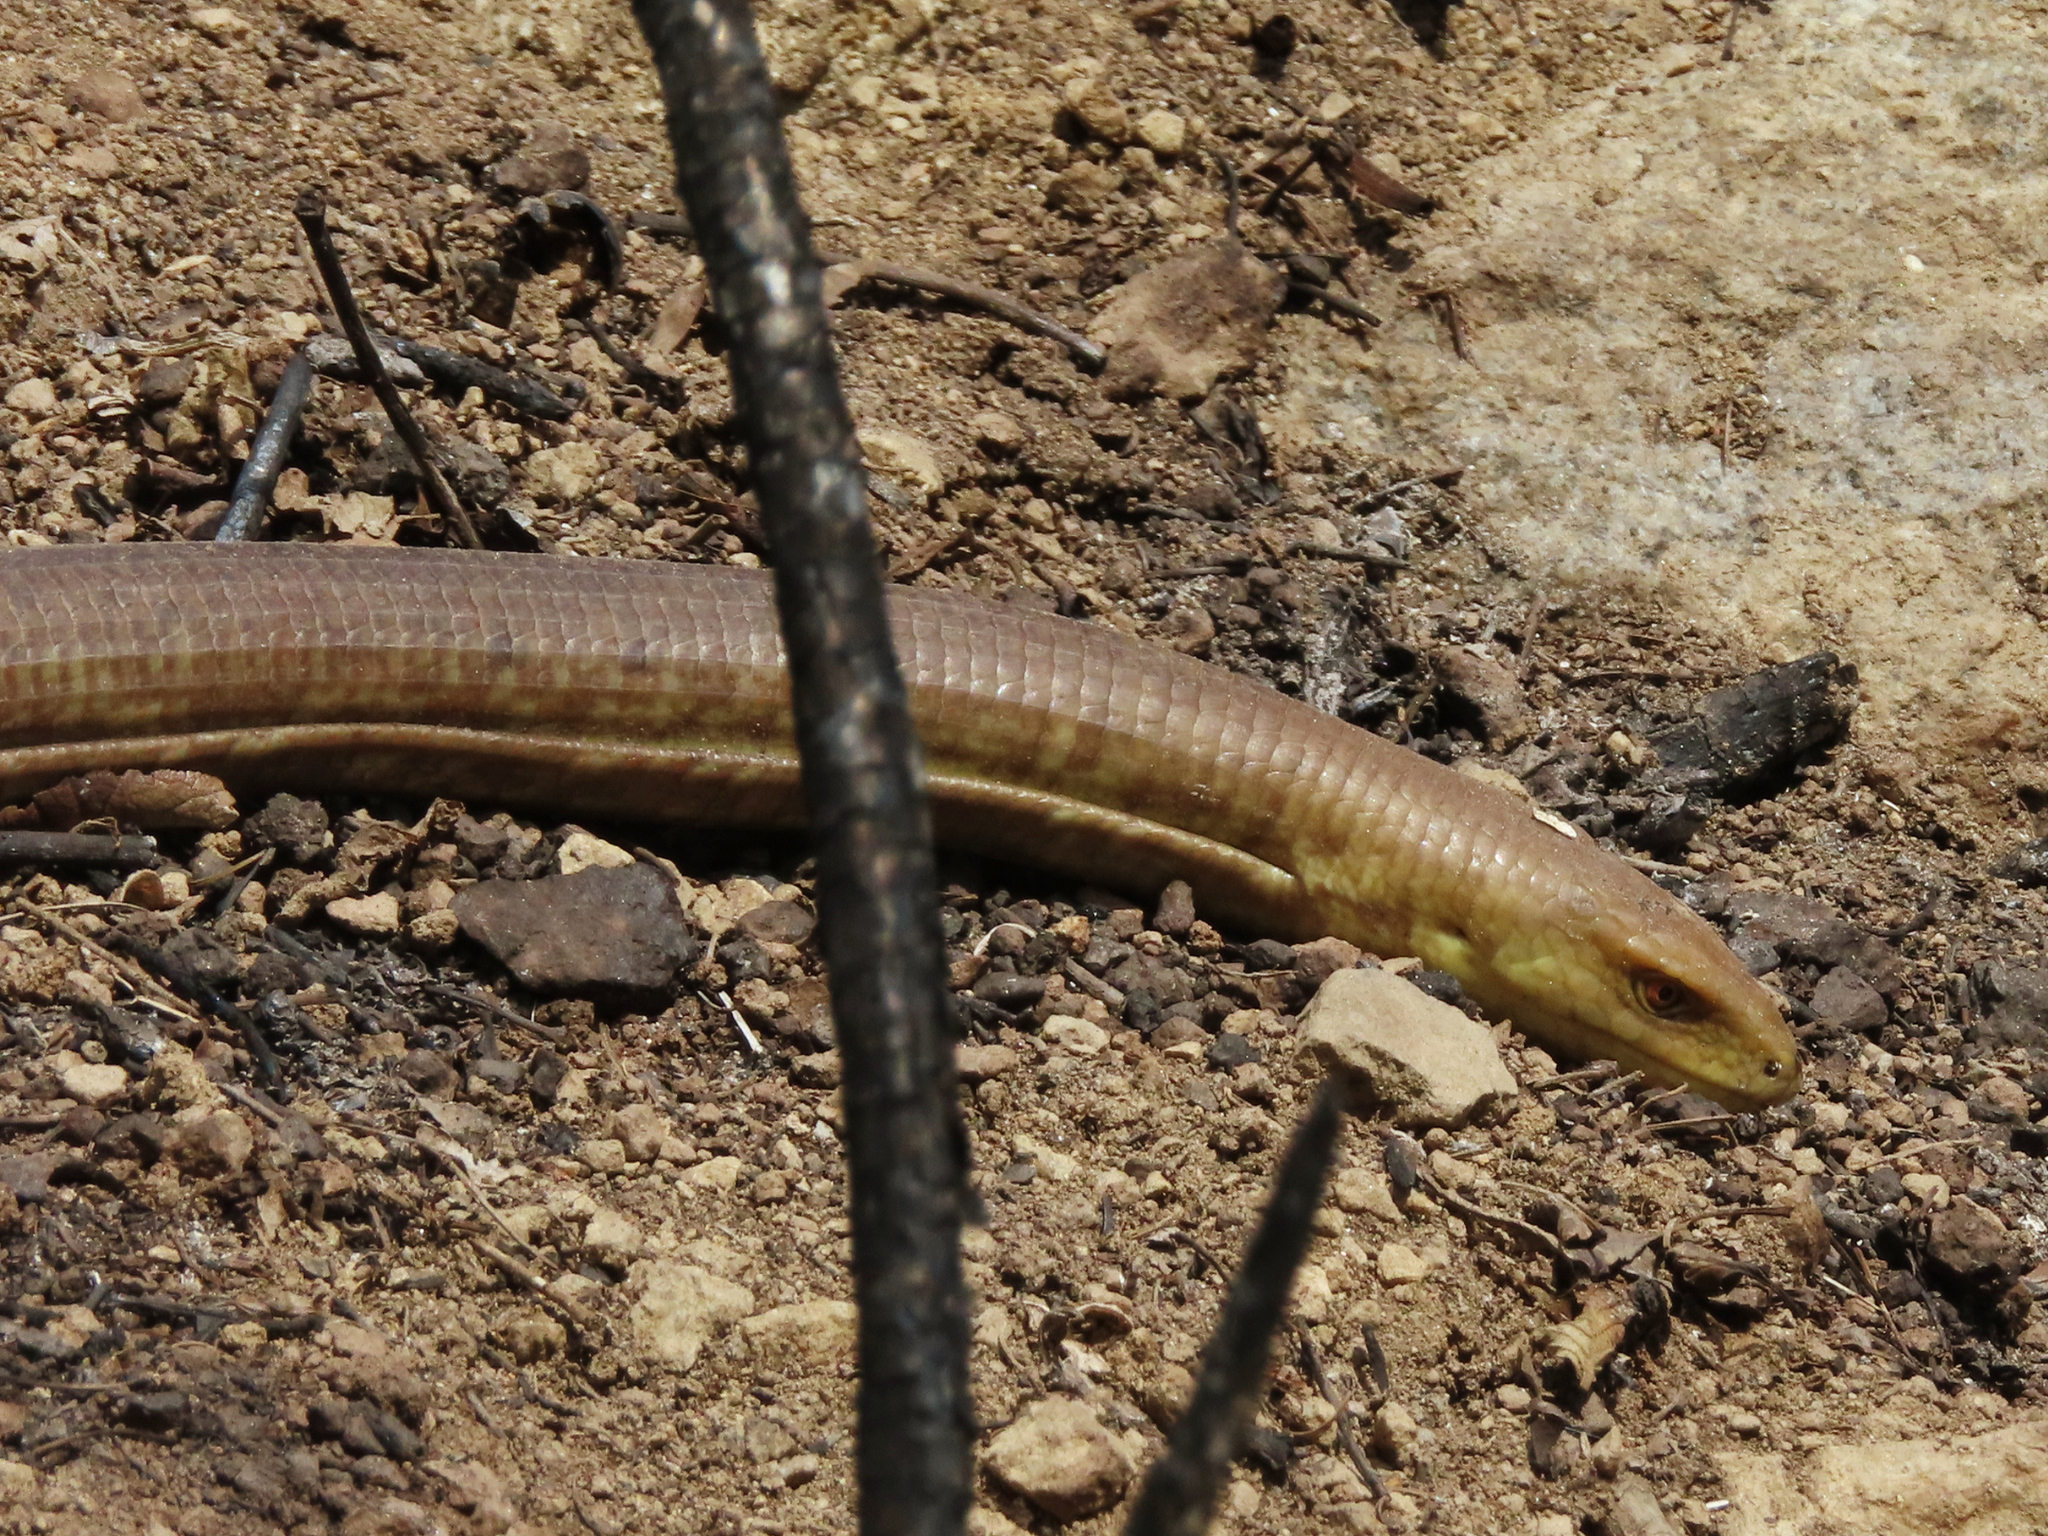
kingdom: Animalia
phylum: Chordata
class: Squamata
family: Anguidae
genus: Pseudopus
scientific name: Pseudopus apodus
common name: European glass lizard
